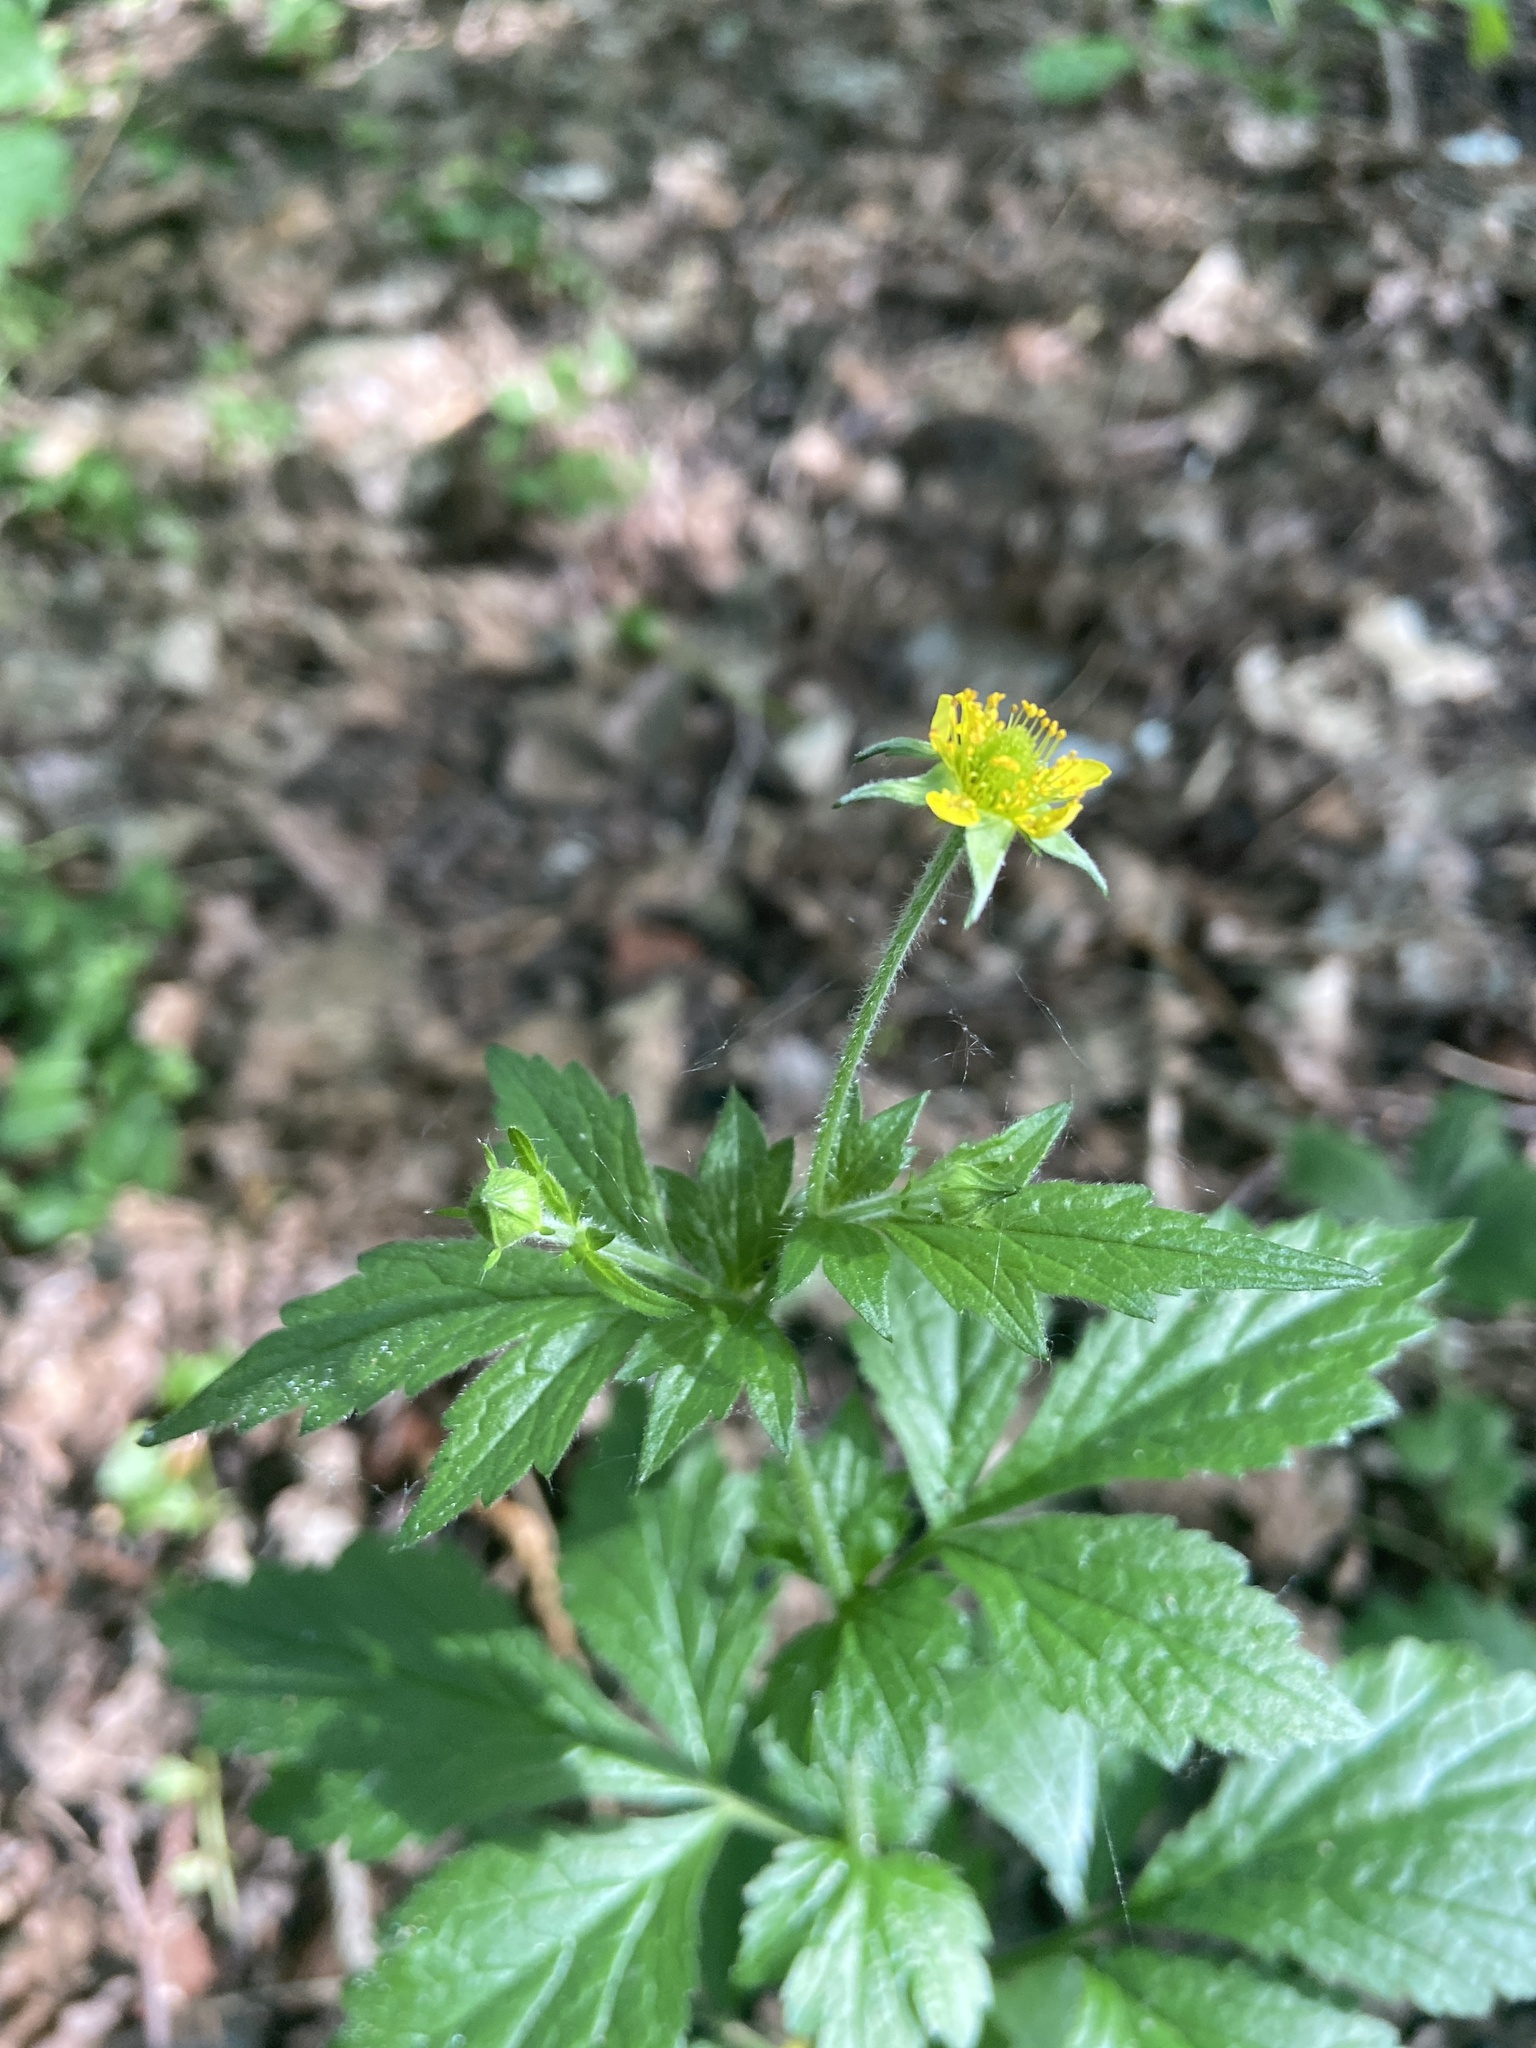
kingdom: Plantae
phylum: Tracheophyta
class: Magnoliopsida
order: Rosales
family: Rosaceae
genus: Geum
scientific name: Geum urbanum
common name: Wood avens
